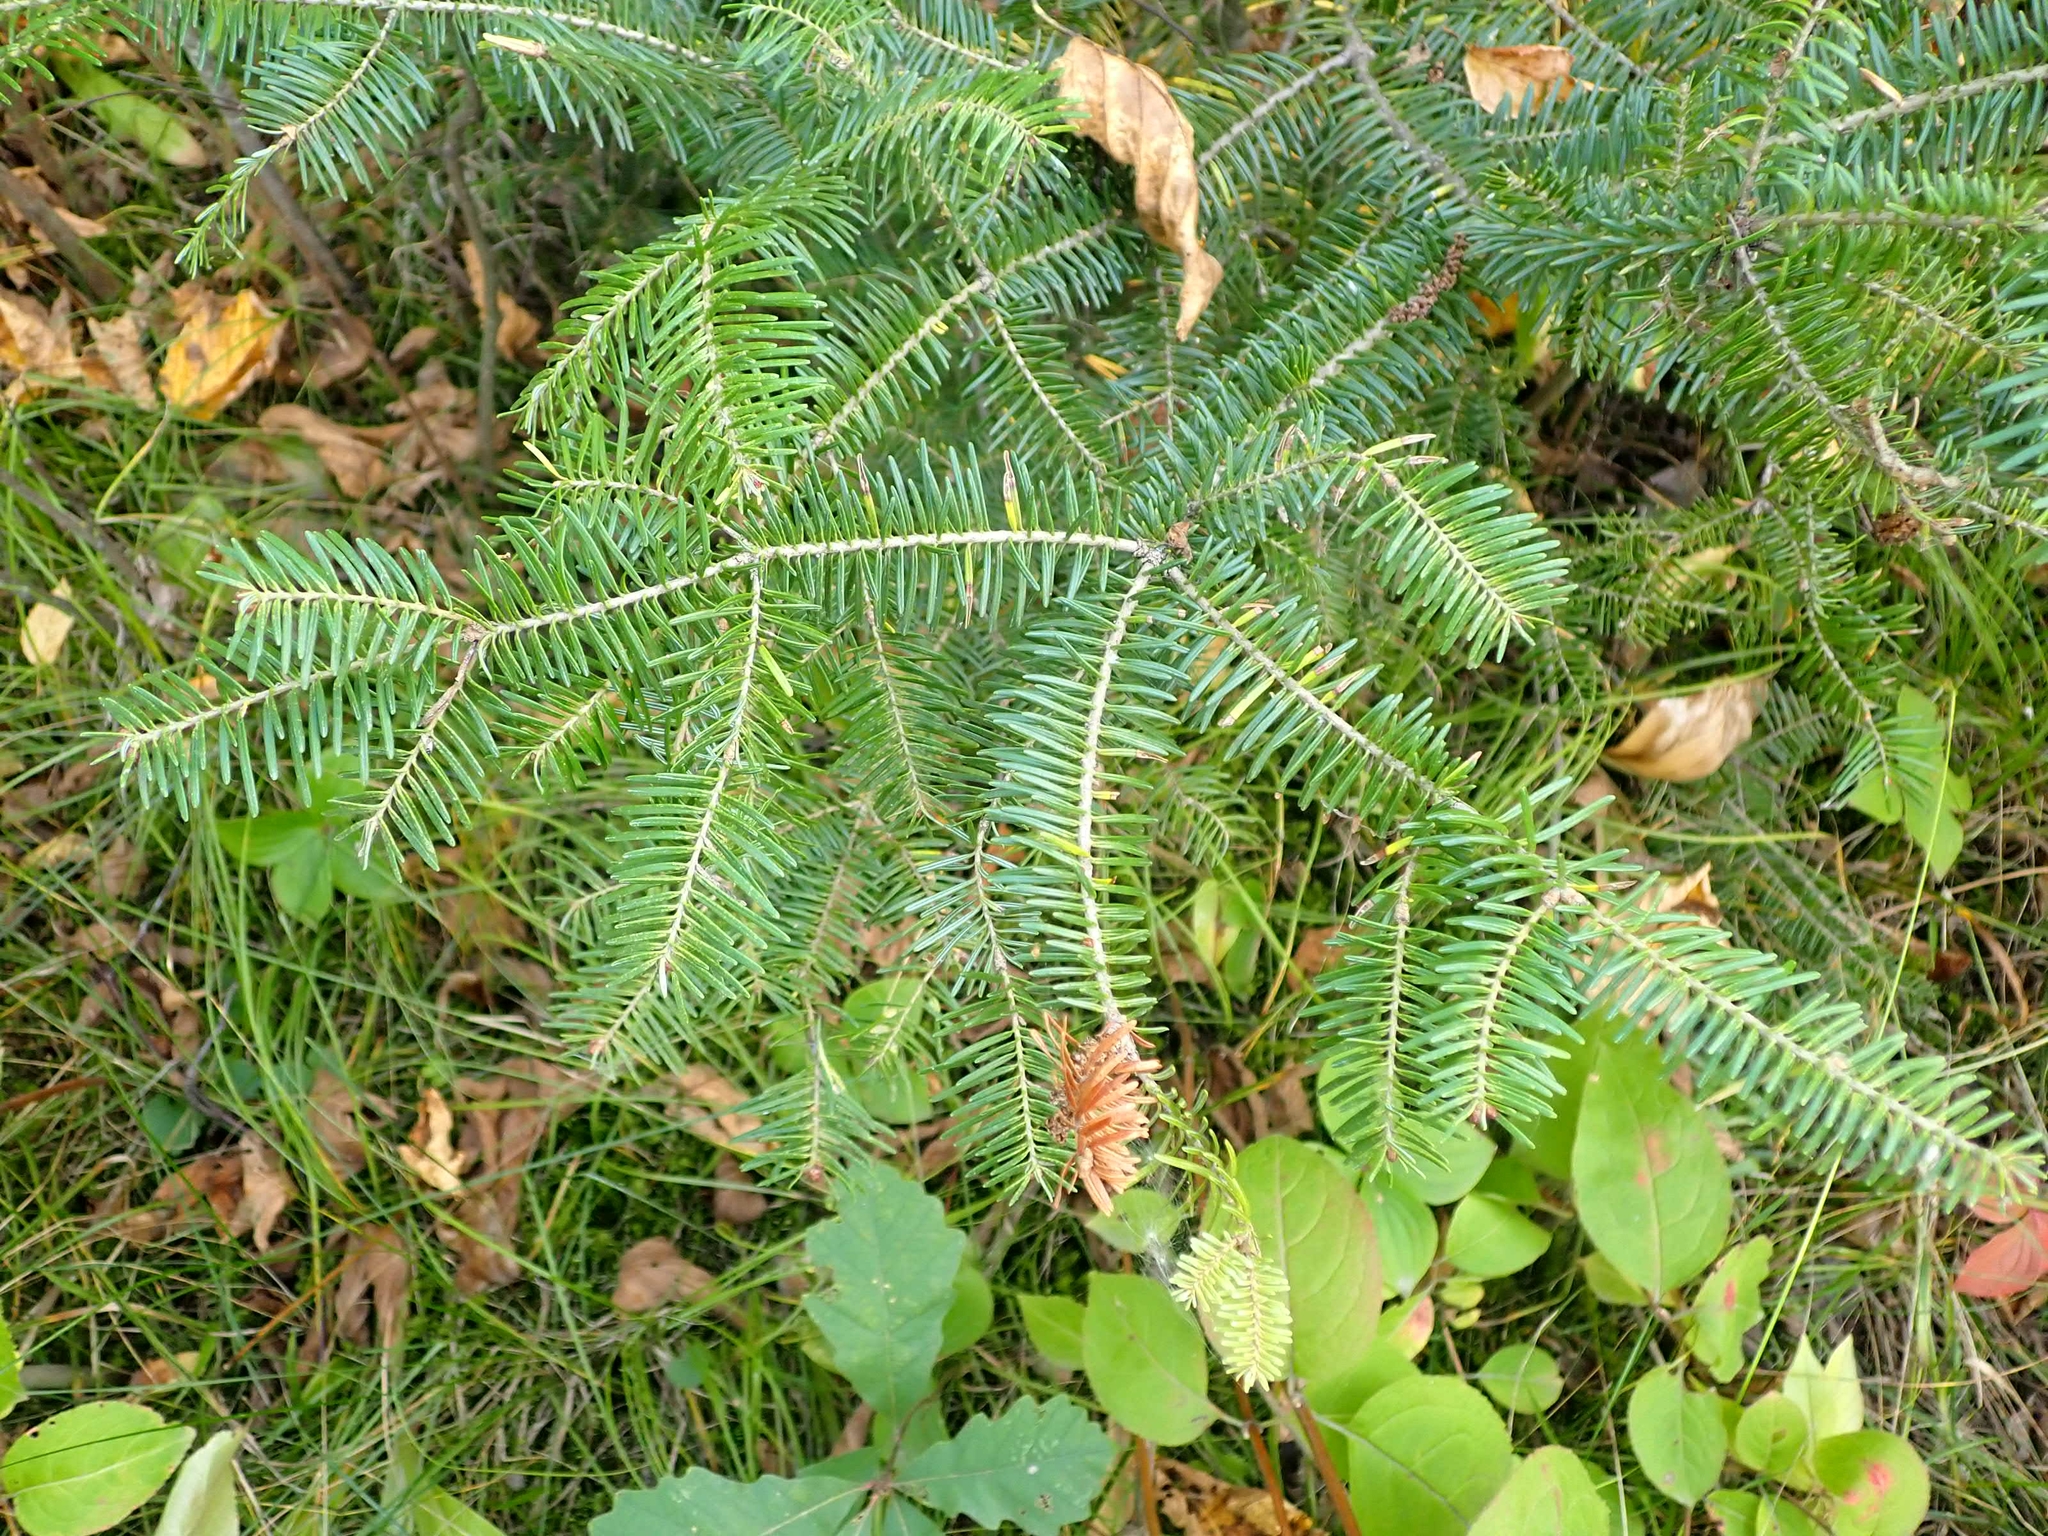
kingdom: Plantae
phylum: Tracheophyta
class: Pinopsida
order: Pinales
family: Pinaceae
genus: Abies
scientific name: Abies balsamea
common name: Balsam fir
